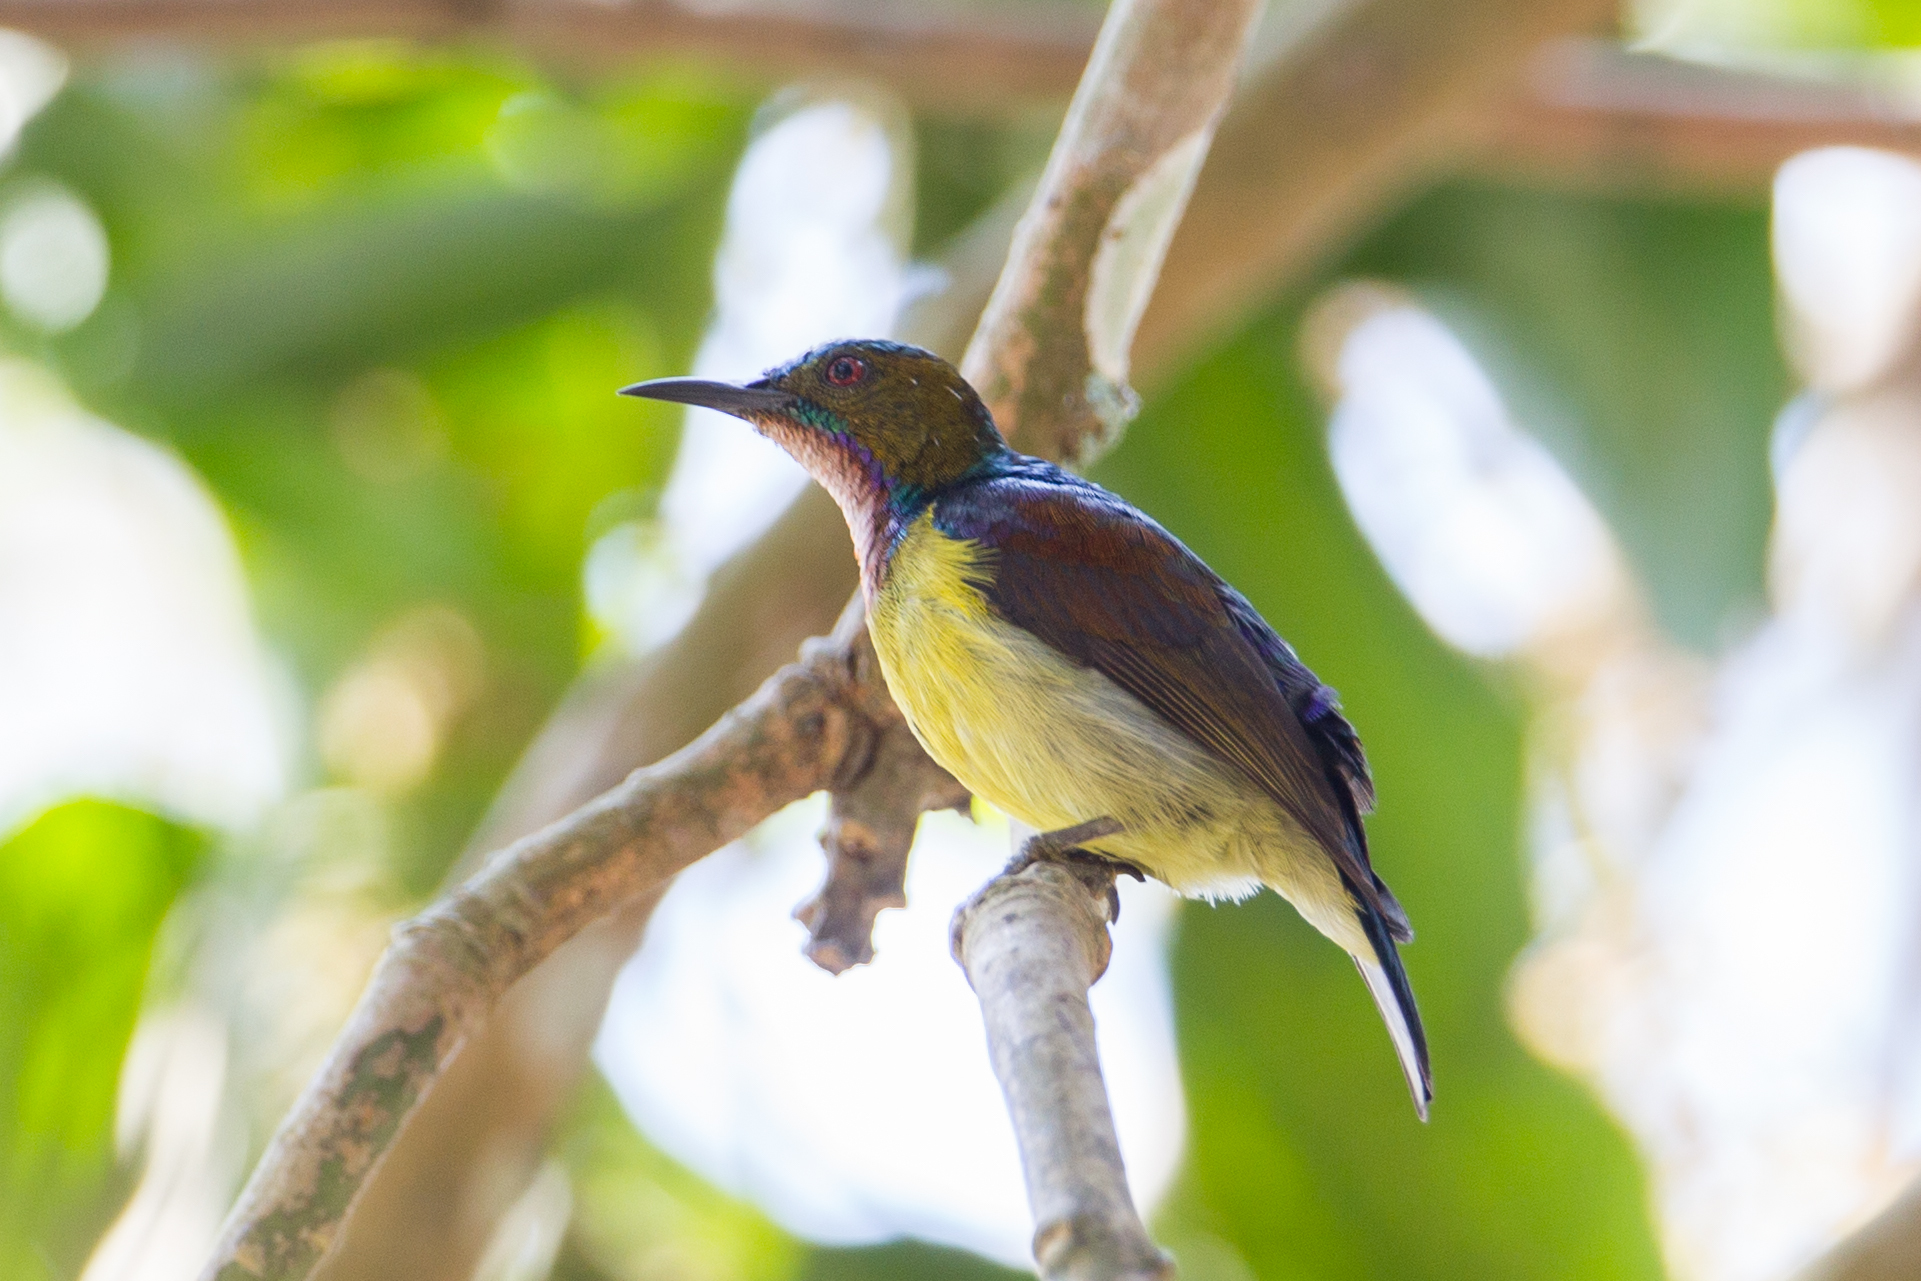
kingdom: Animalia
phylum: Chordata
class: Aves
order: Passeriformes
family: Nectariniidae
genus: Anthreptes
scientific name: Anthreptes malacensis
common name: Brown-throated sunbird
